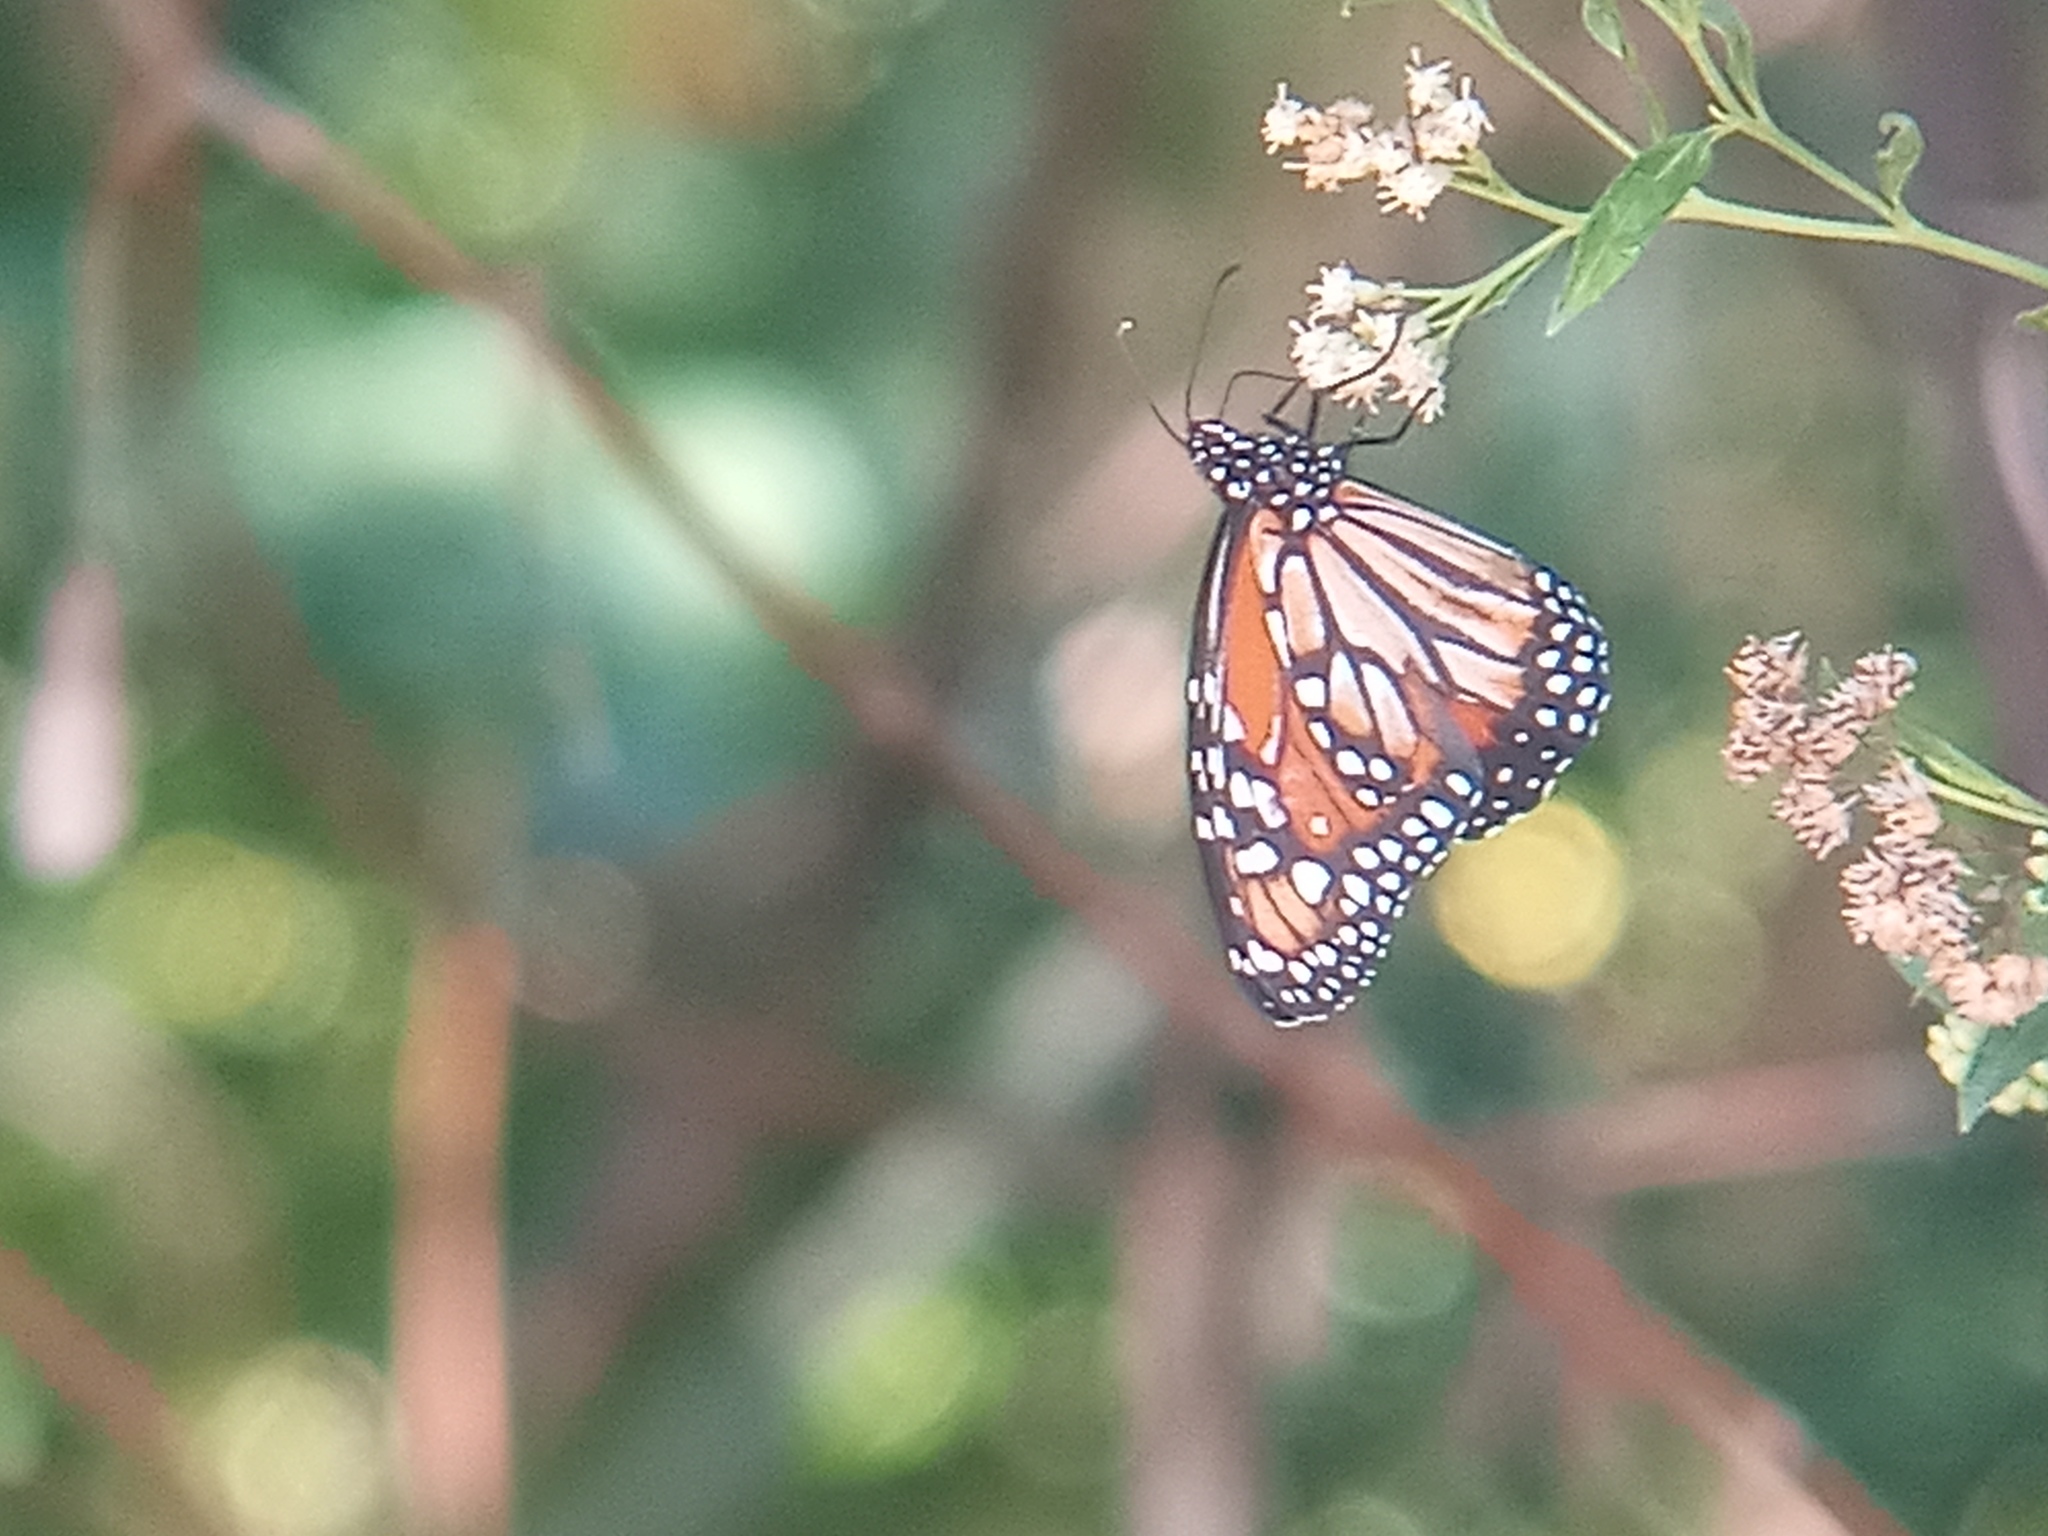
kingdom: Animalia
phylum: Arthropoda
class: Insecta
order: Lepidoptera
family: Nymphalidae
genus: Danaus
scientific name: Danaus erippus
